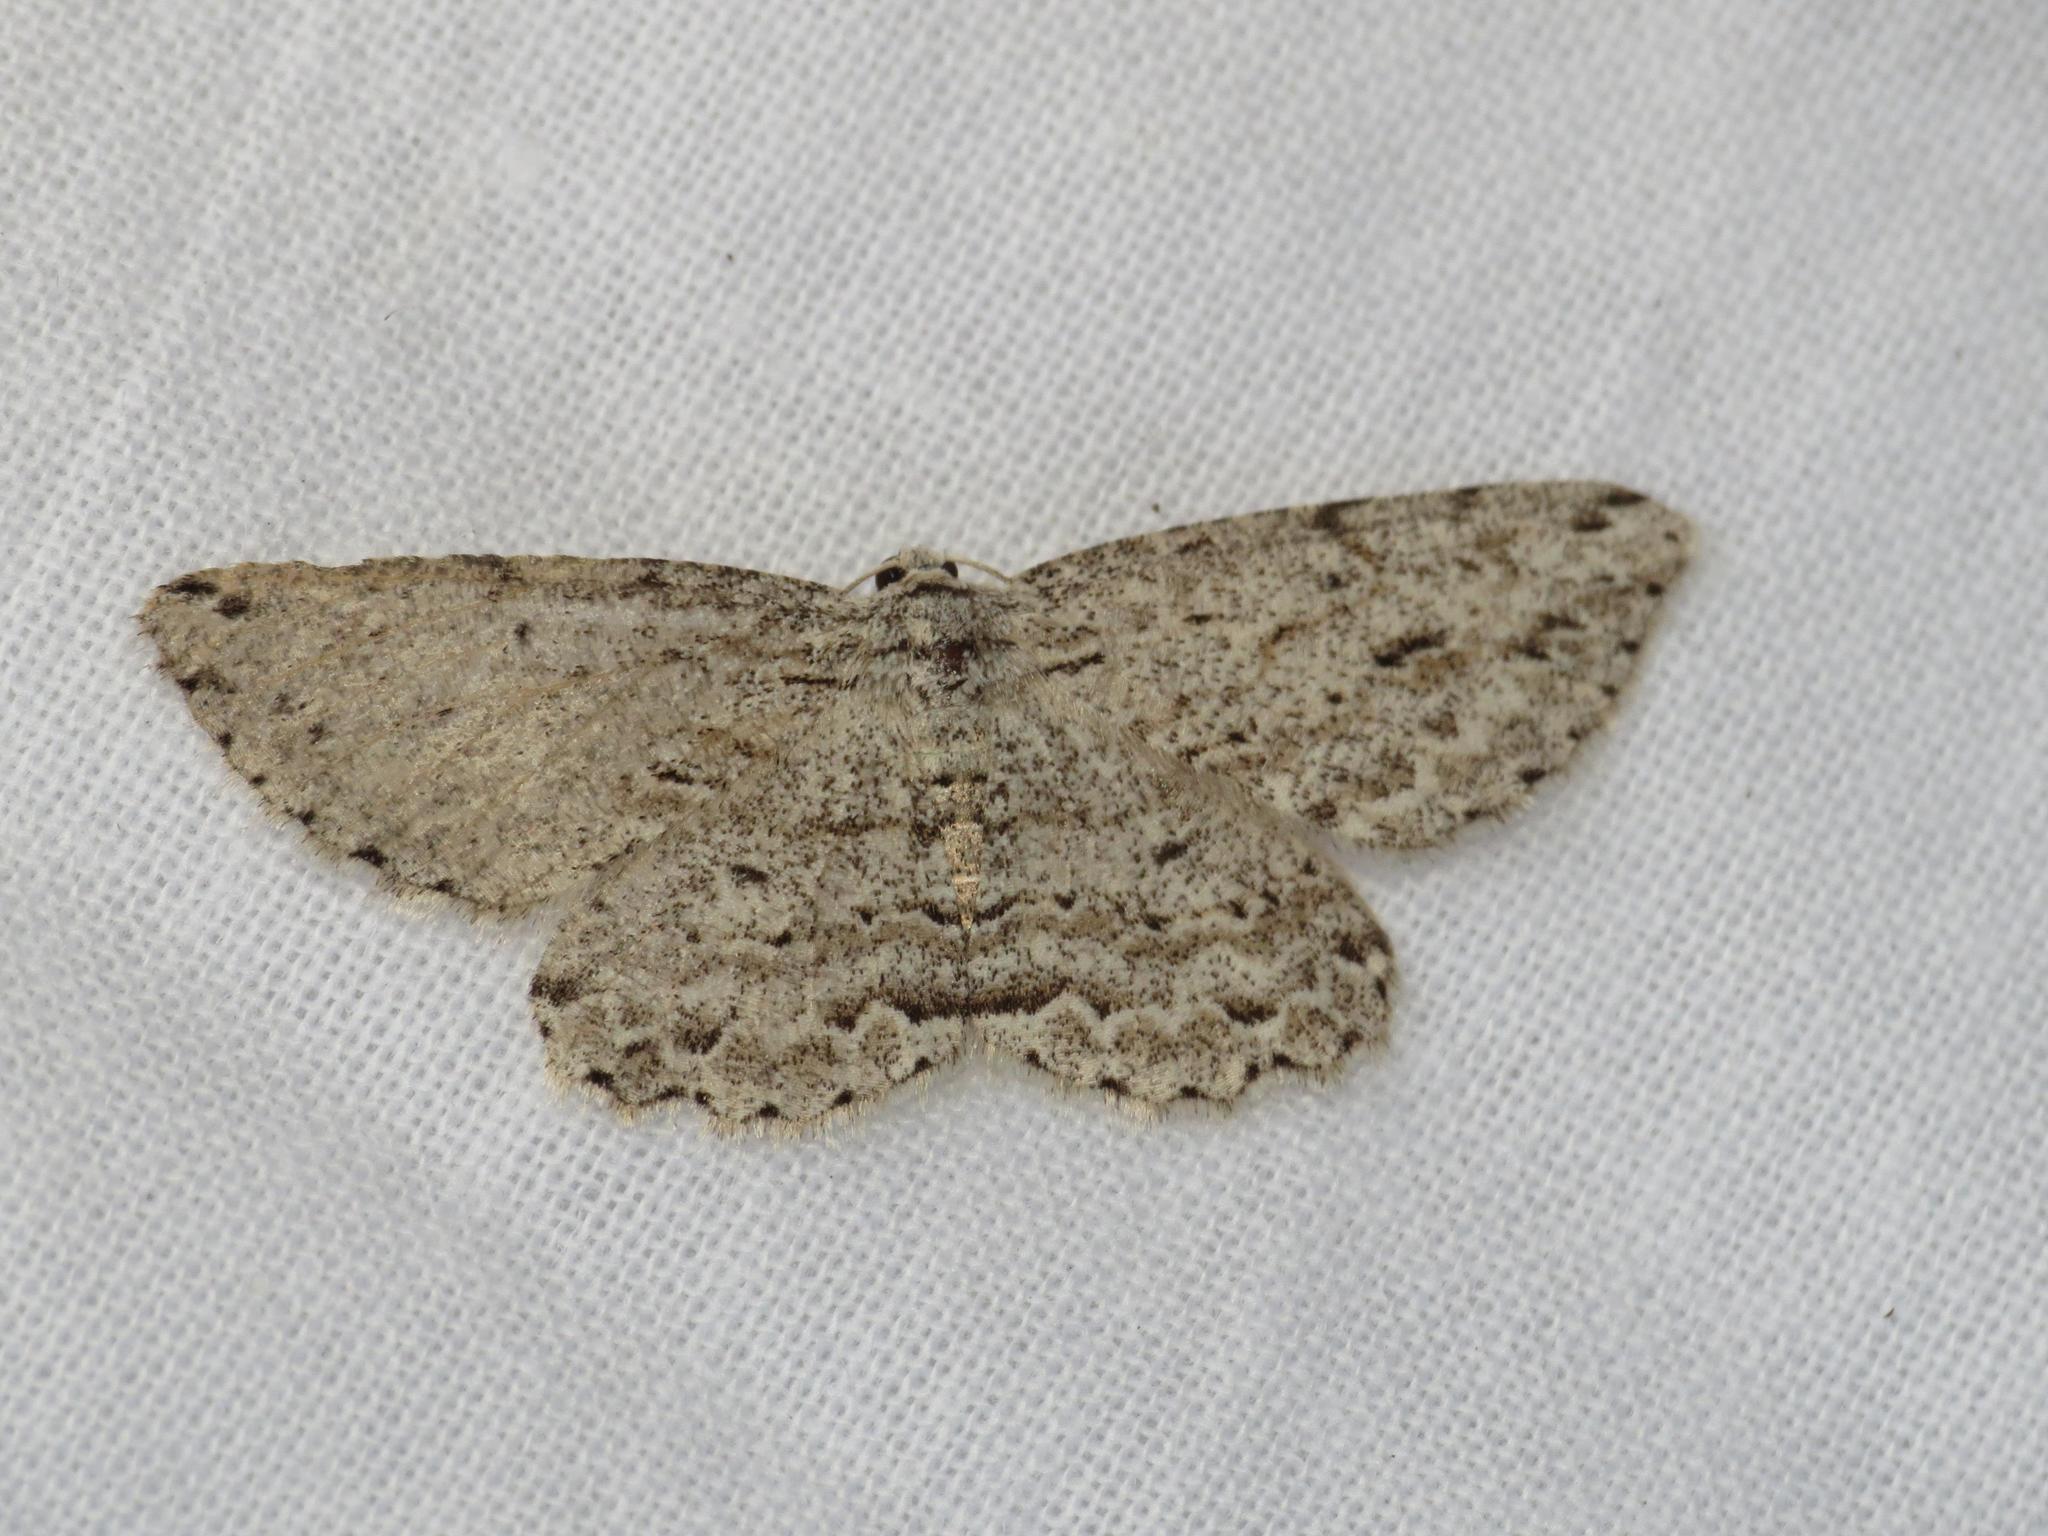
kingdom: Animalia
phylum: Arthropoda
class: Insecta
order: Lepidoptera
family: Geometridae
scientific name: Geometridae
